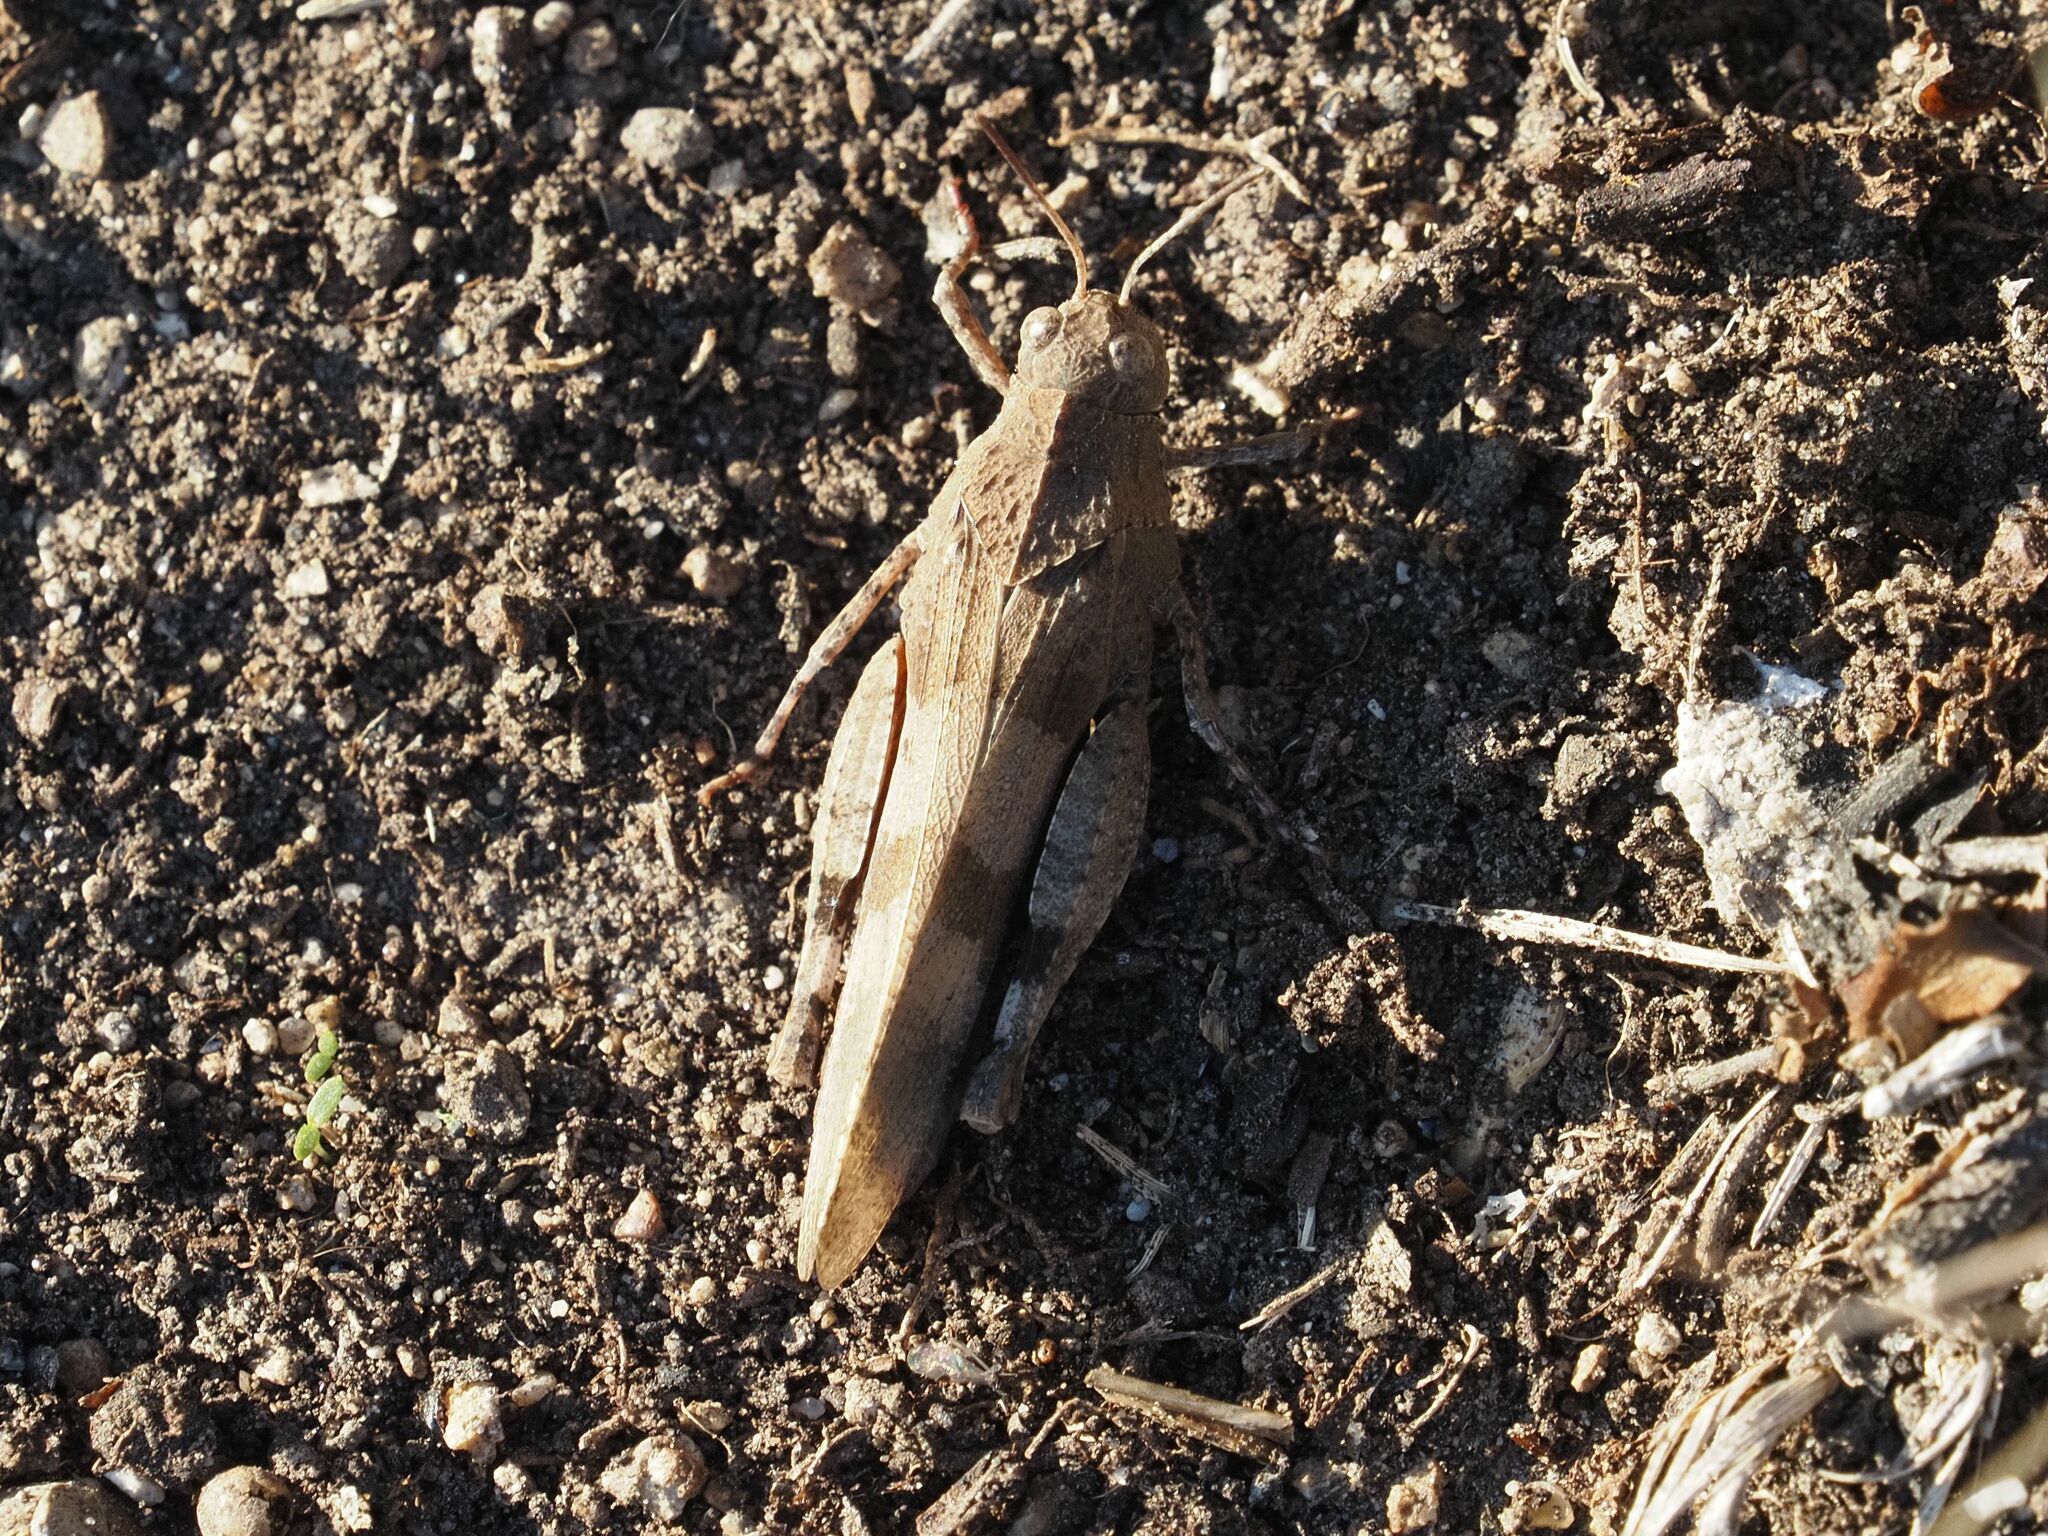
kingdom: Animalia
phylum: Arthropoda
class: Insecta
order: Orthoptera
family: Acrididae
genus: Oedipoda
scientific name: Oedipoda caerulescens
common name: Blue-winged grasshopper
